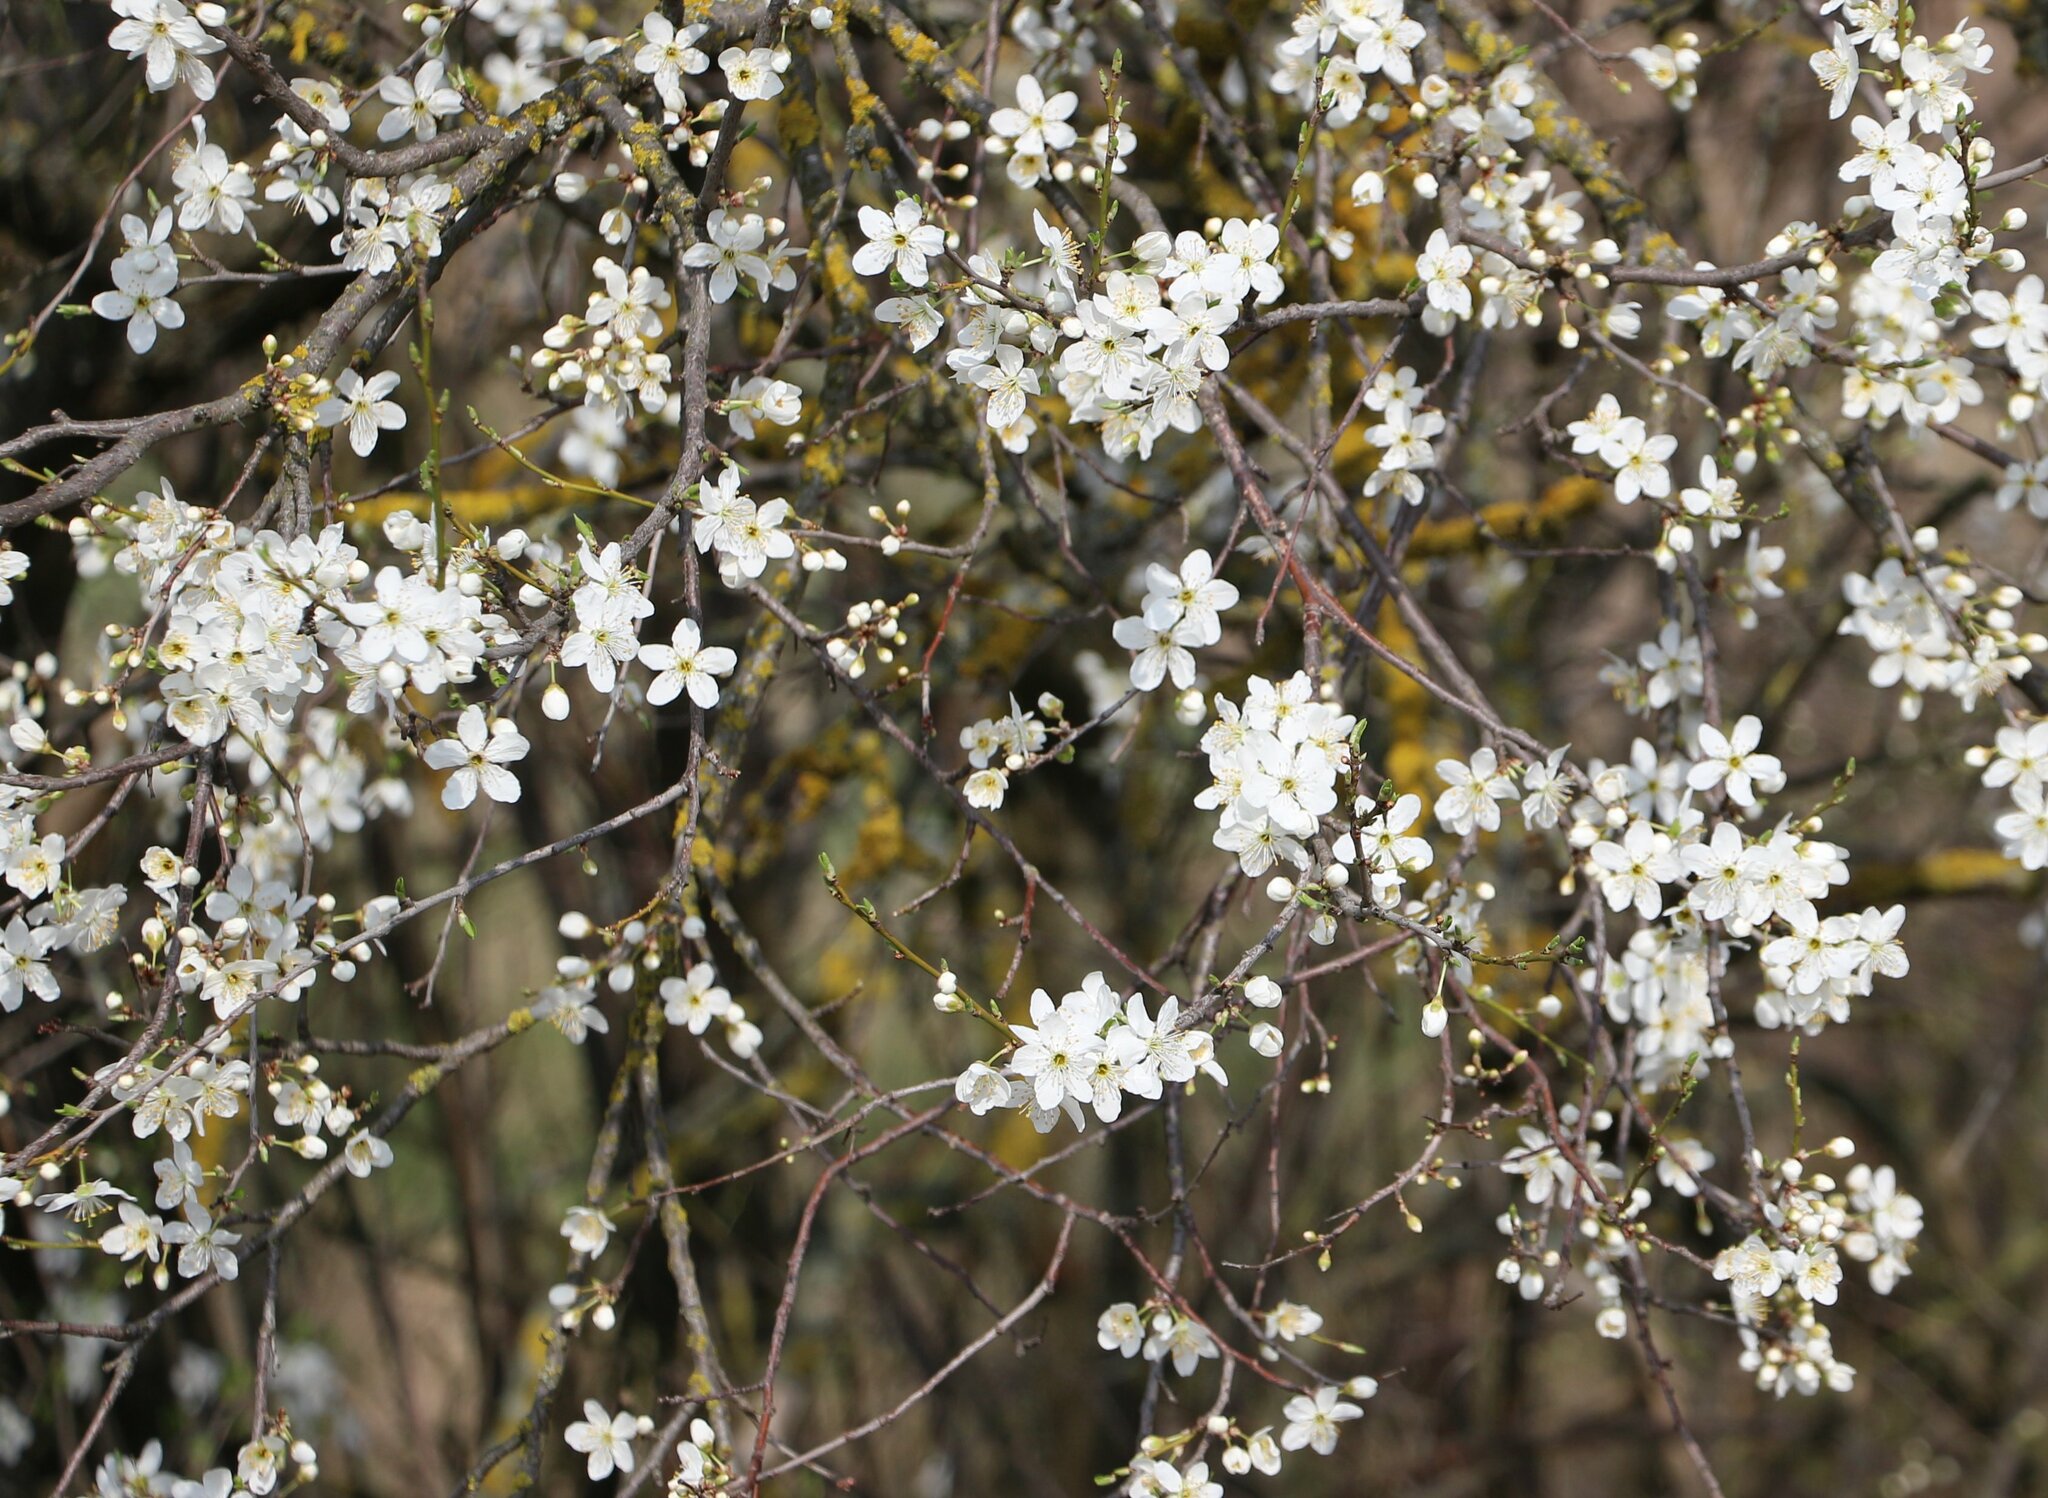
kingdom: Plantae
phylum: Tracheophyta
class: Magnoliopsida
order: Rosales
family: Rosaceae
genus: Prunus
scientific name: Prunus cerasifera
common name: Cherry plum
